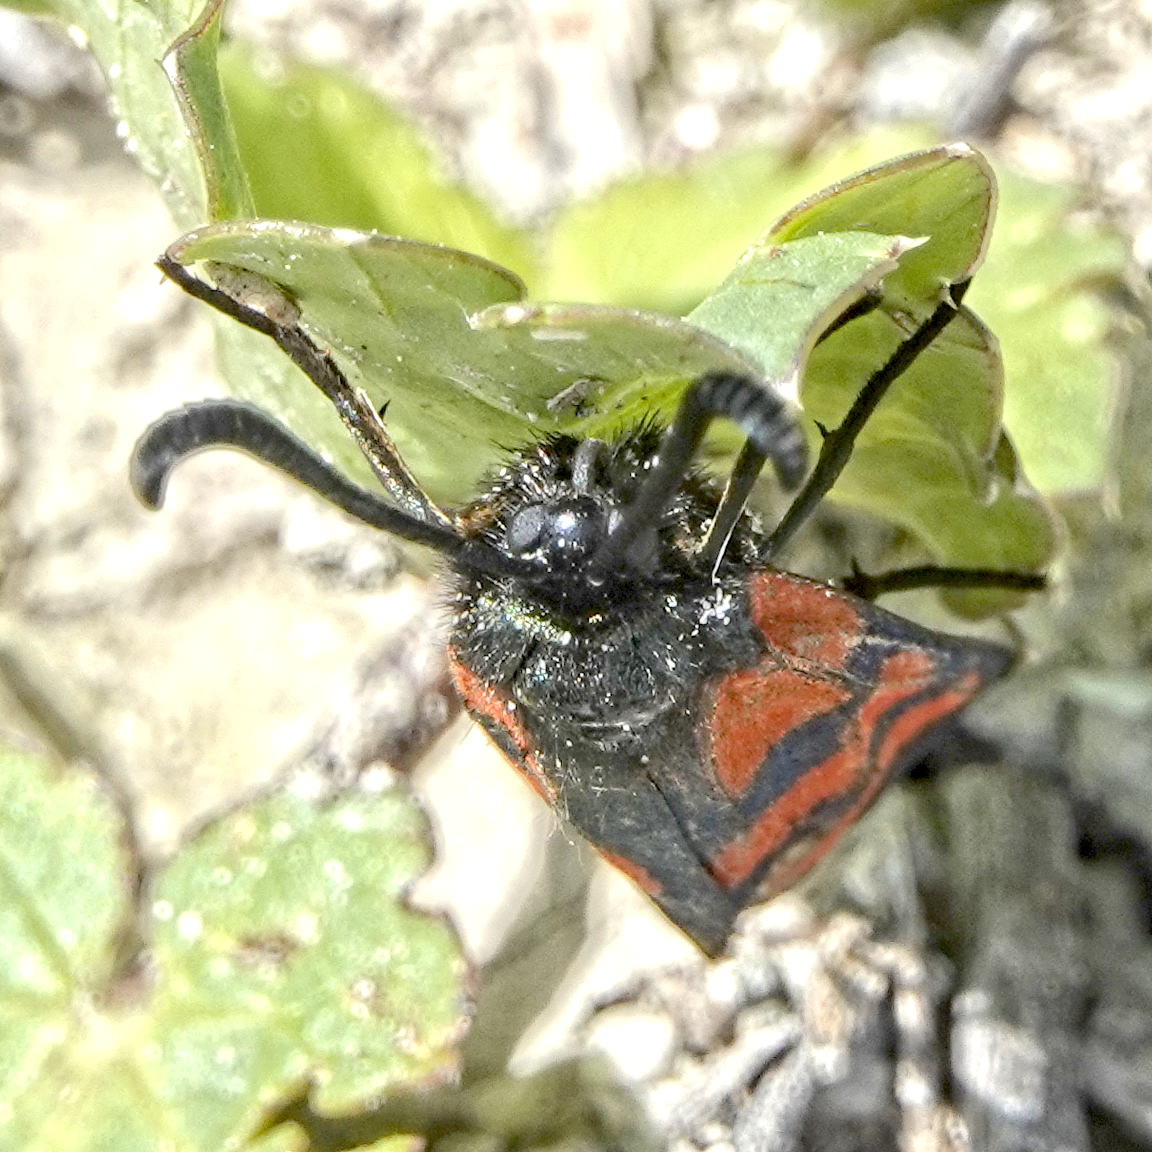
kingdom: Animalia
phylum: Arthropoda
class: Insecta
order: Lepidoptera
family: Zygaenidae
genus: Zygaena
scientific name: Zygaena graslini
